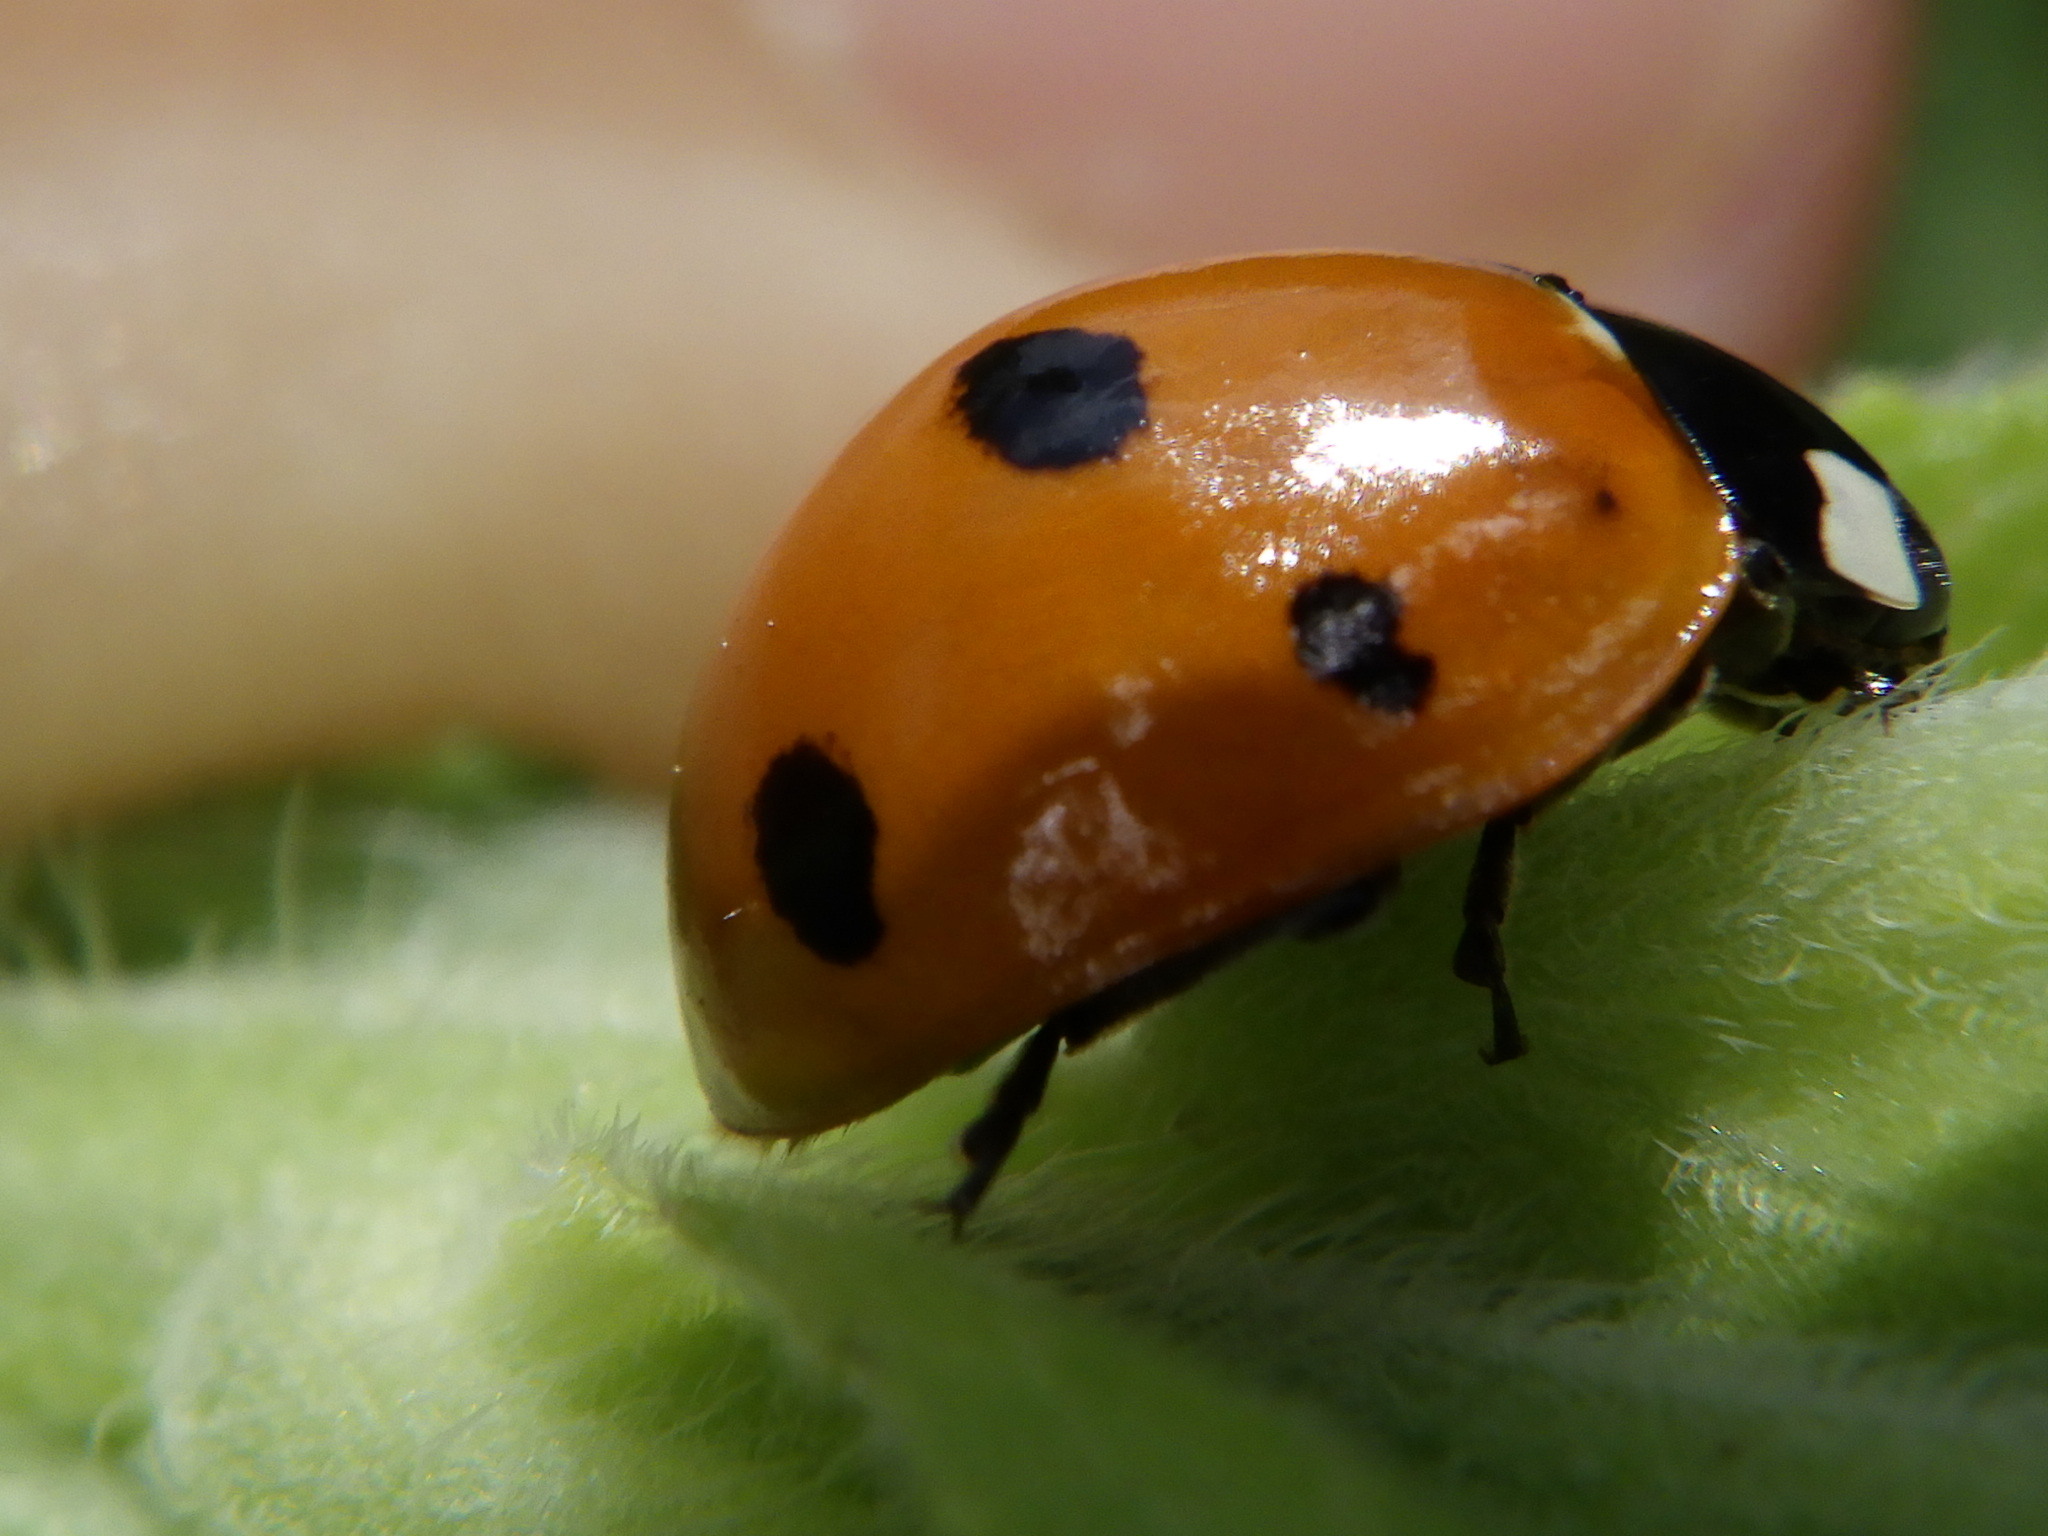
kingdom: Animalia
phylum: Arthropoda
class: Insecta
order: Coleoptera
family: Coccinellidae
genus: Coccinella
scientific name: Coccinella septempunctata
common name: Sevenspotted lady beetle
